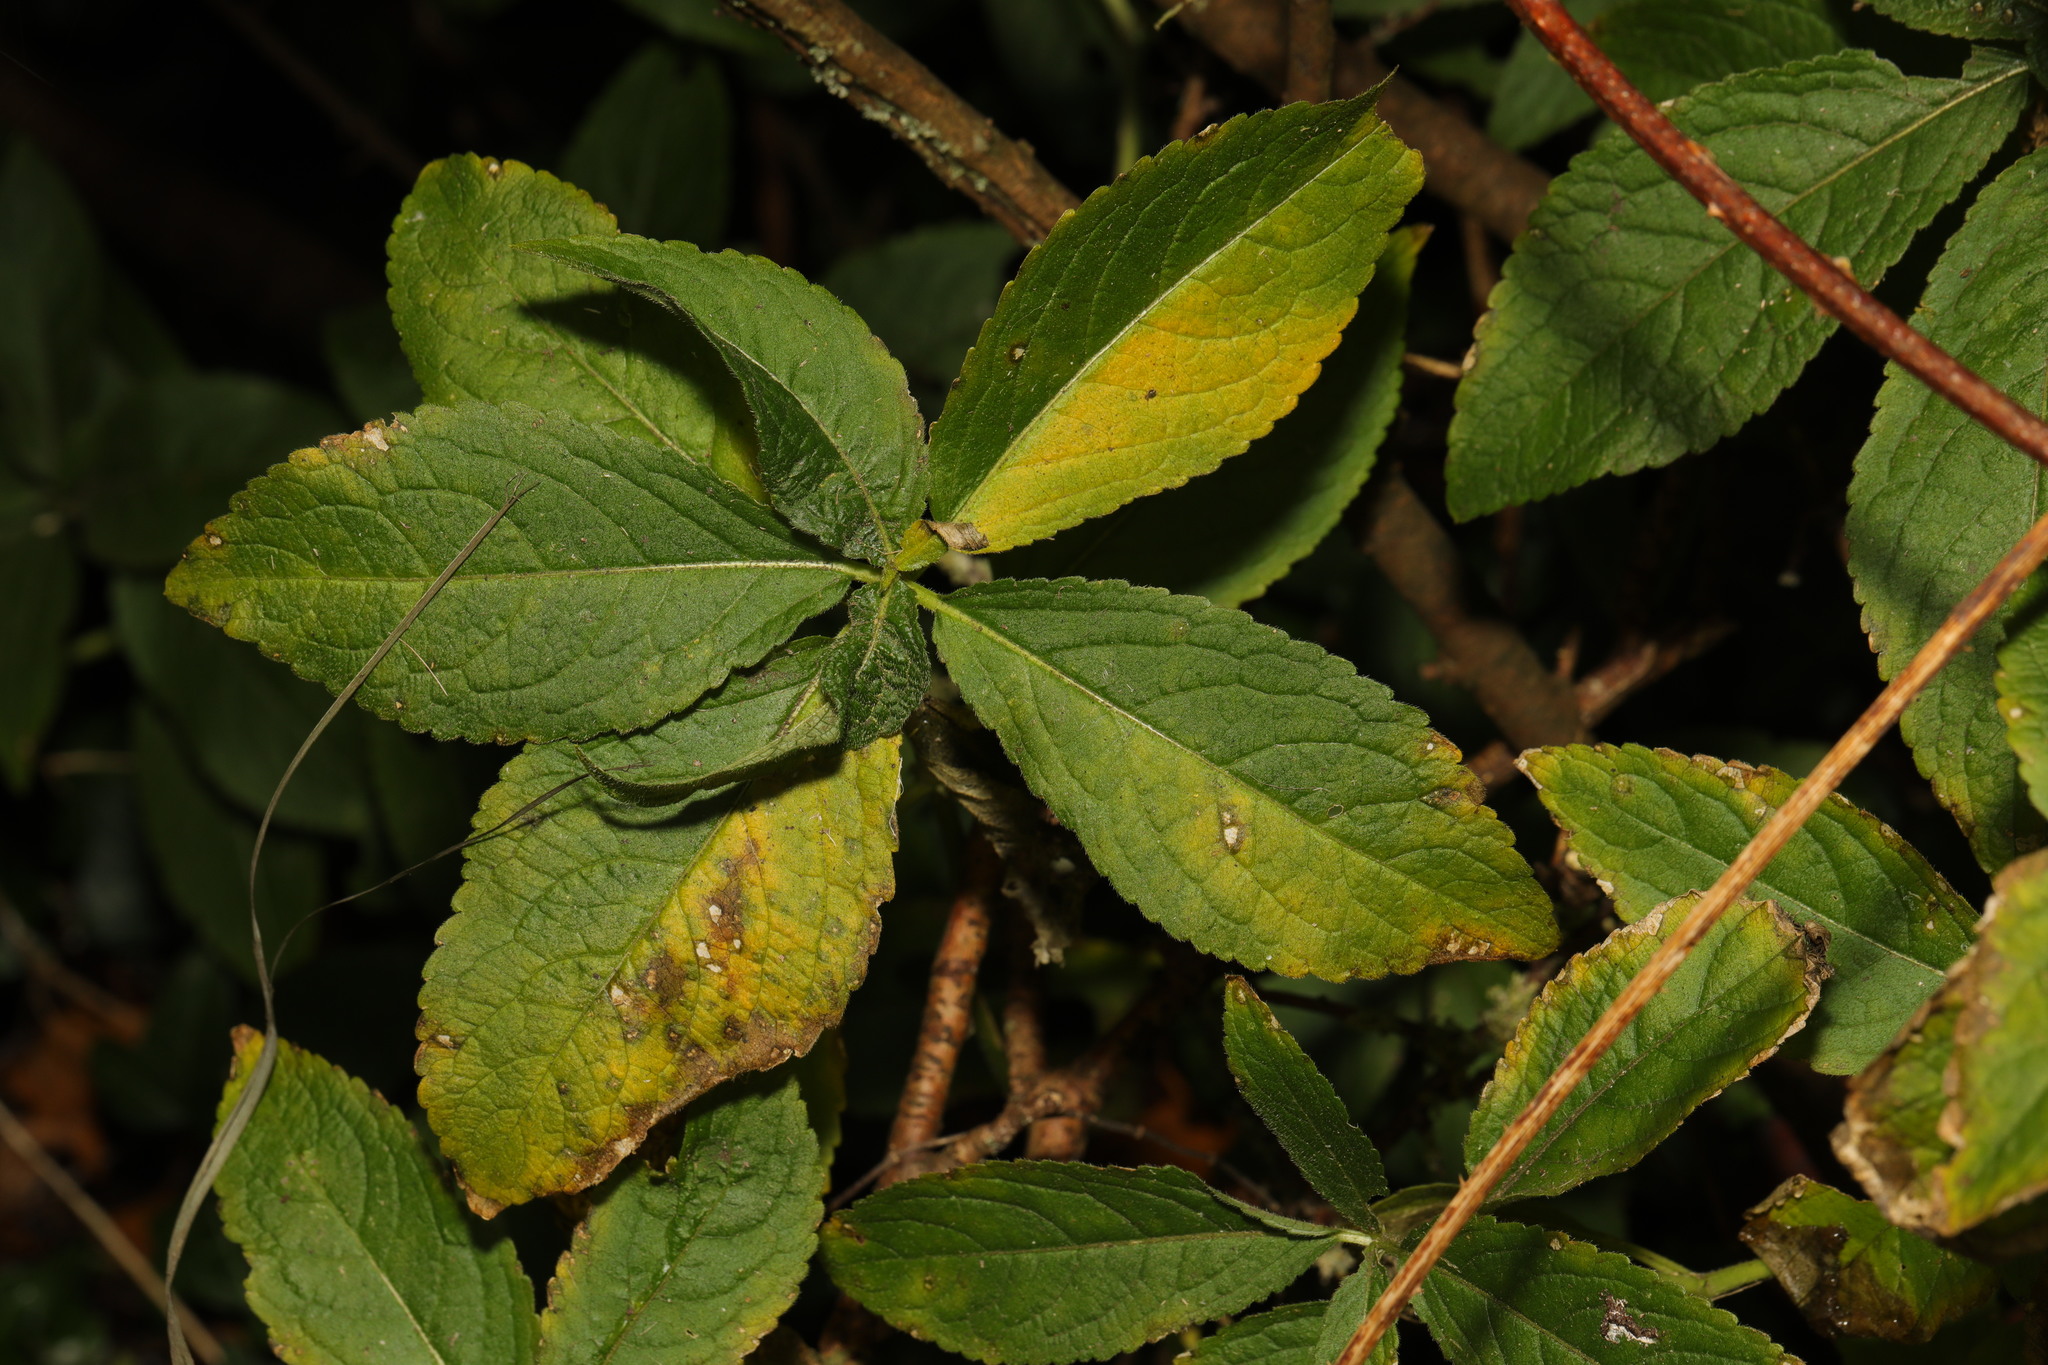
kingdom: Plantae
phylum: Tracheophyta
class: Magnoliopsida
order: Malpighiales
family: Euphorbiaceae
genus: Mercurialis
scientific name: Mercurialis perennis
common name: Dog mercury
